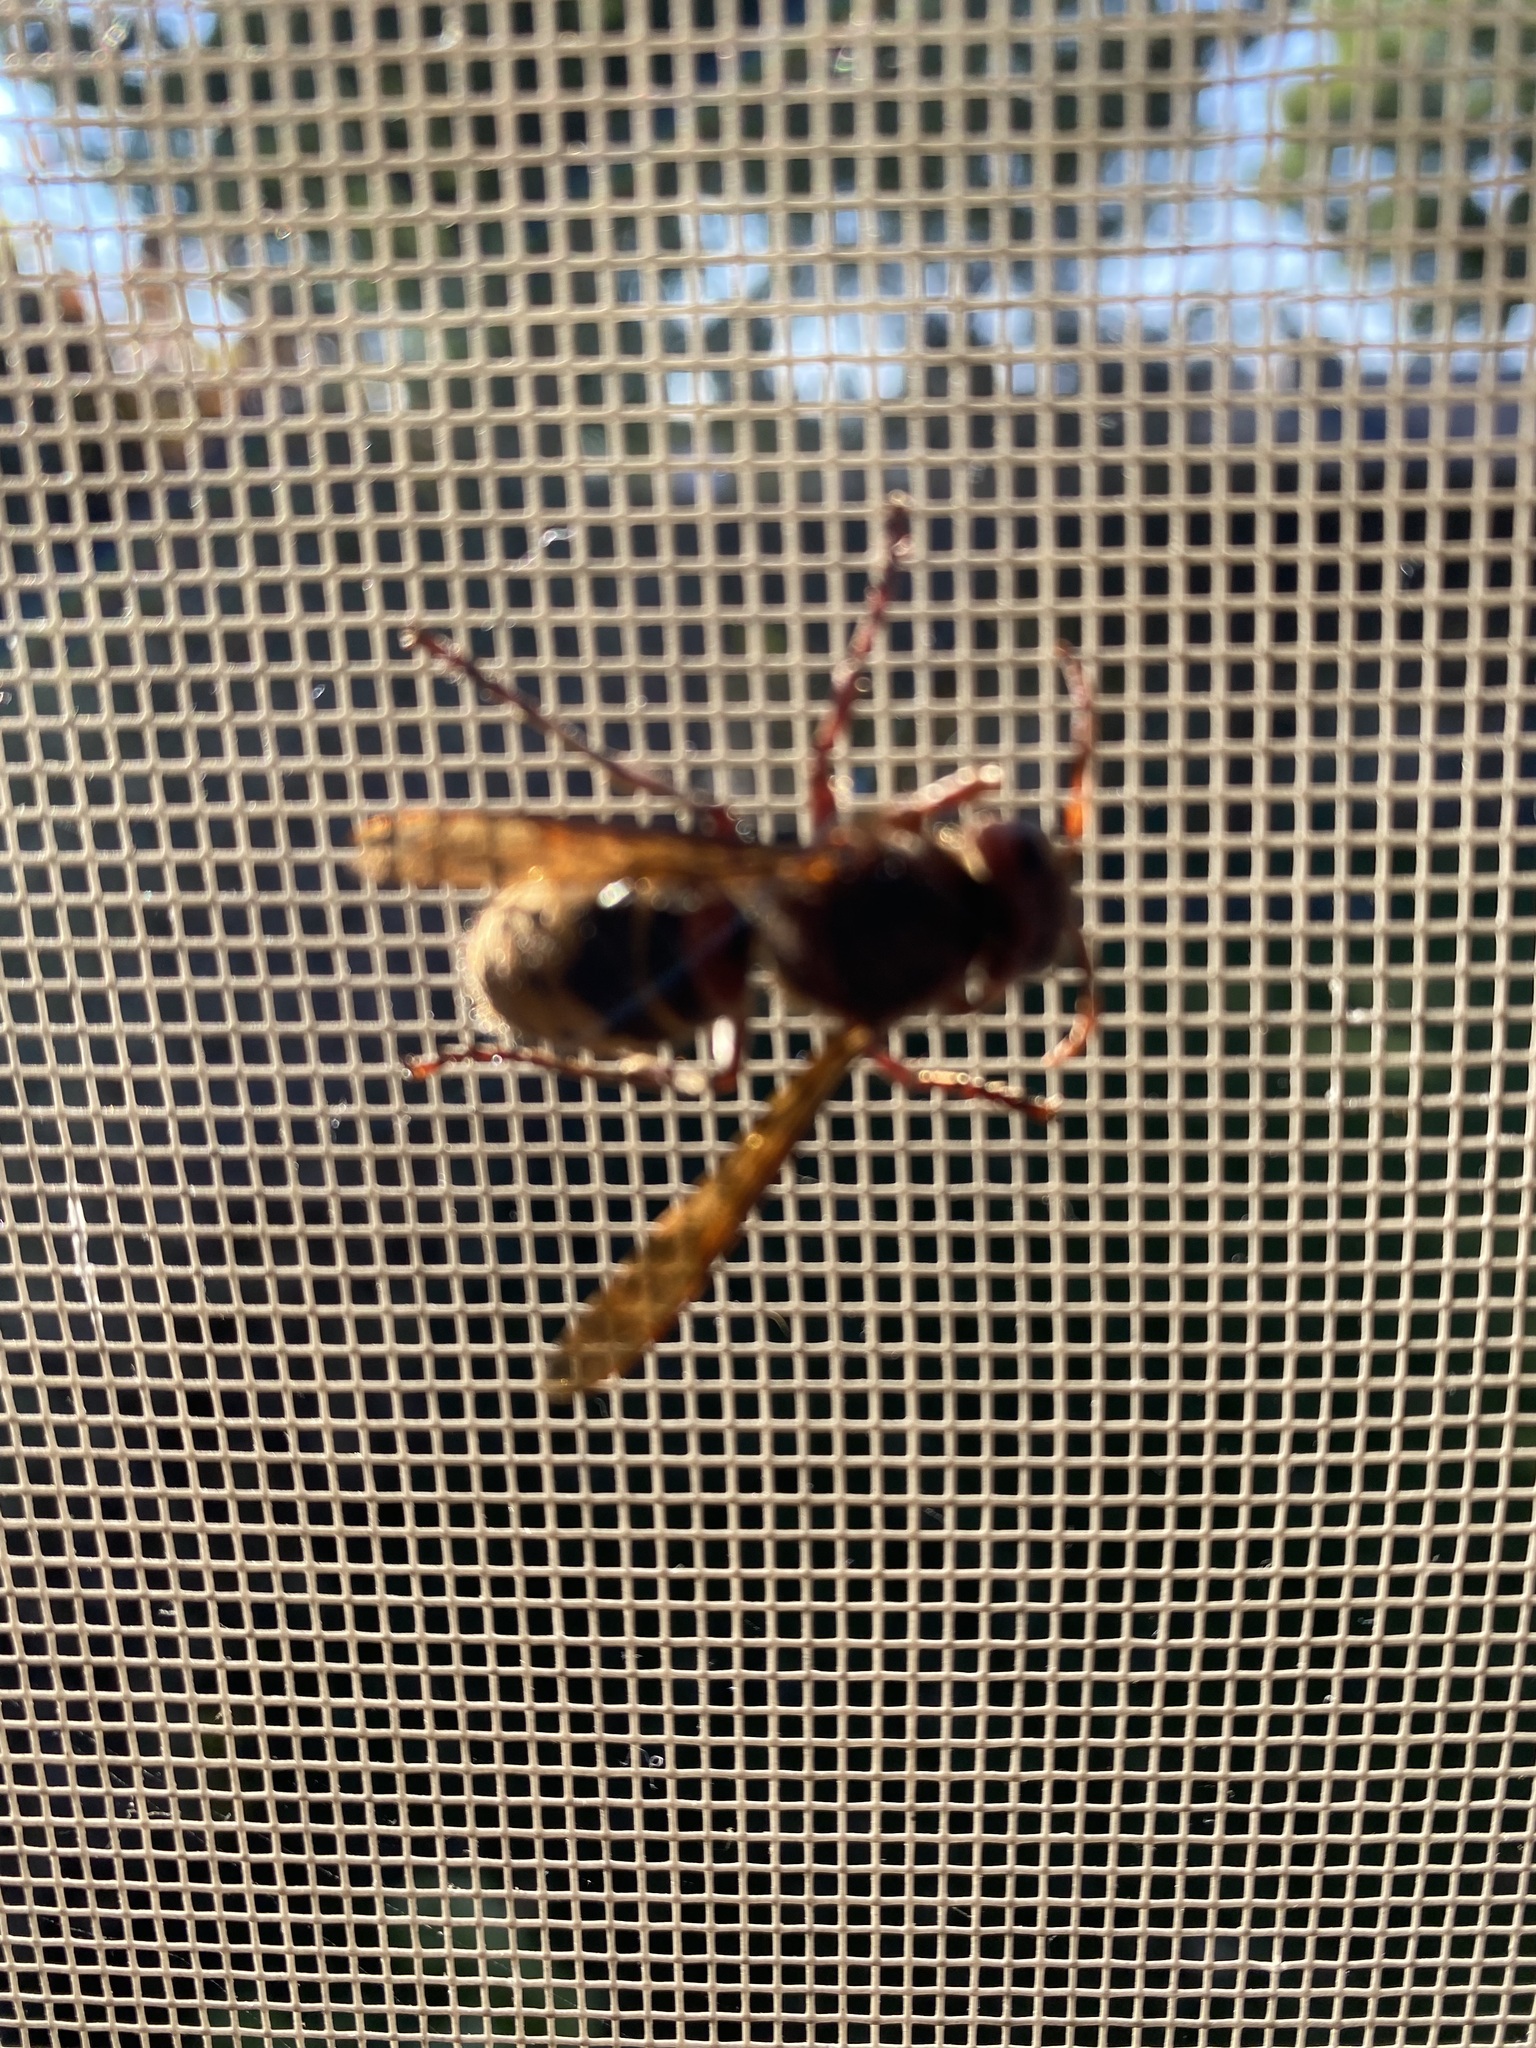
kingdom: Animalia
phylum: Arthropoda
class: Insecta
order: Hymenoptera
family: Vespidae
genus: Vespa
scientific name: Vespa crabro
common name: Hornet
